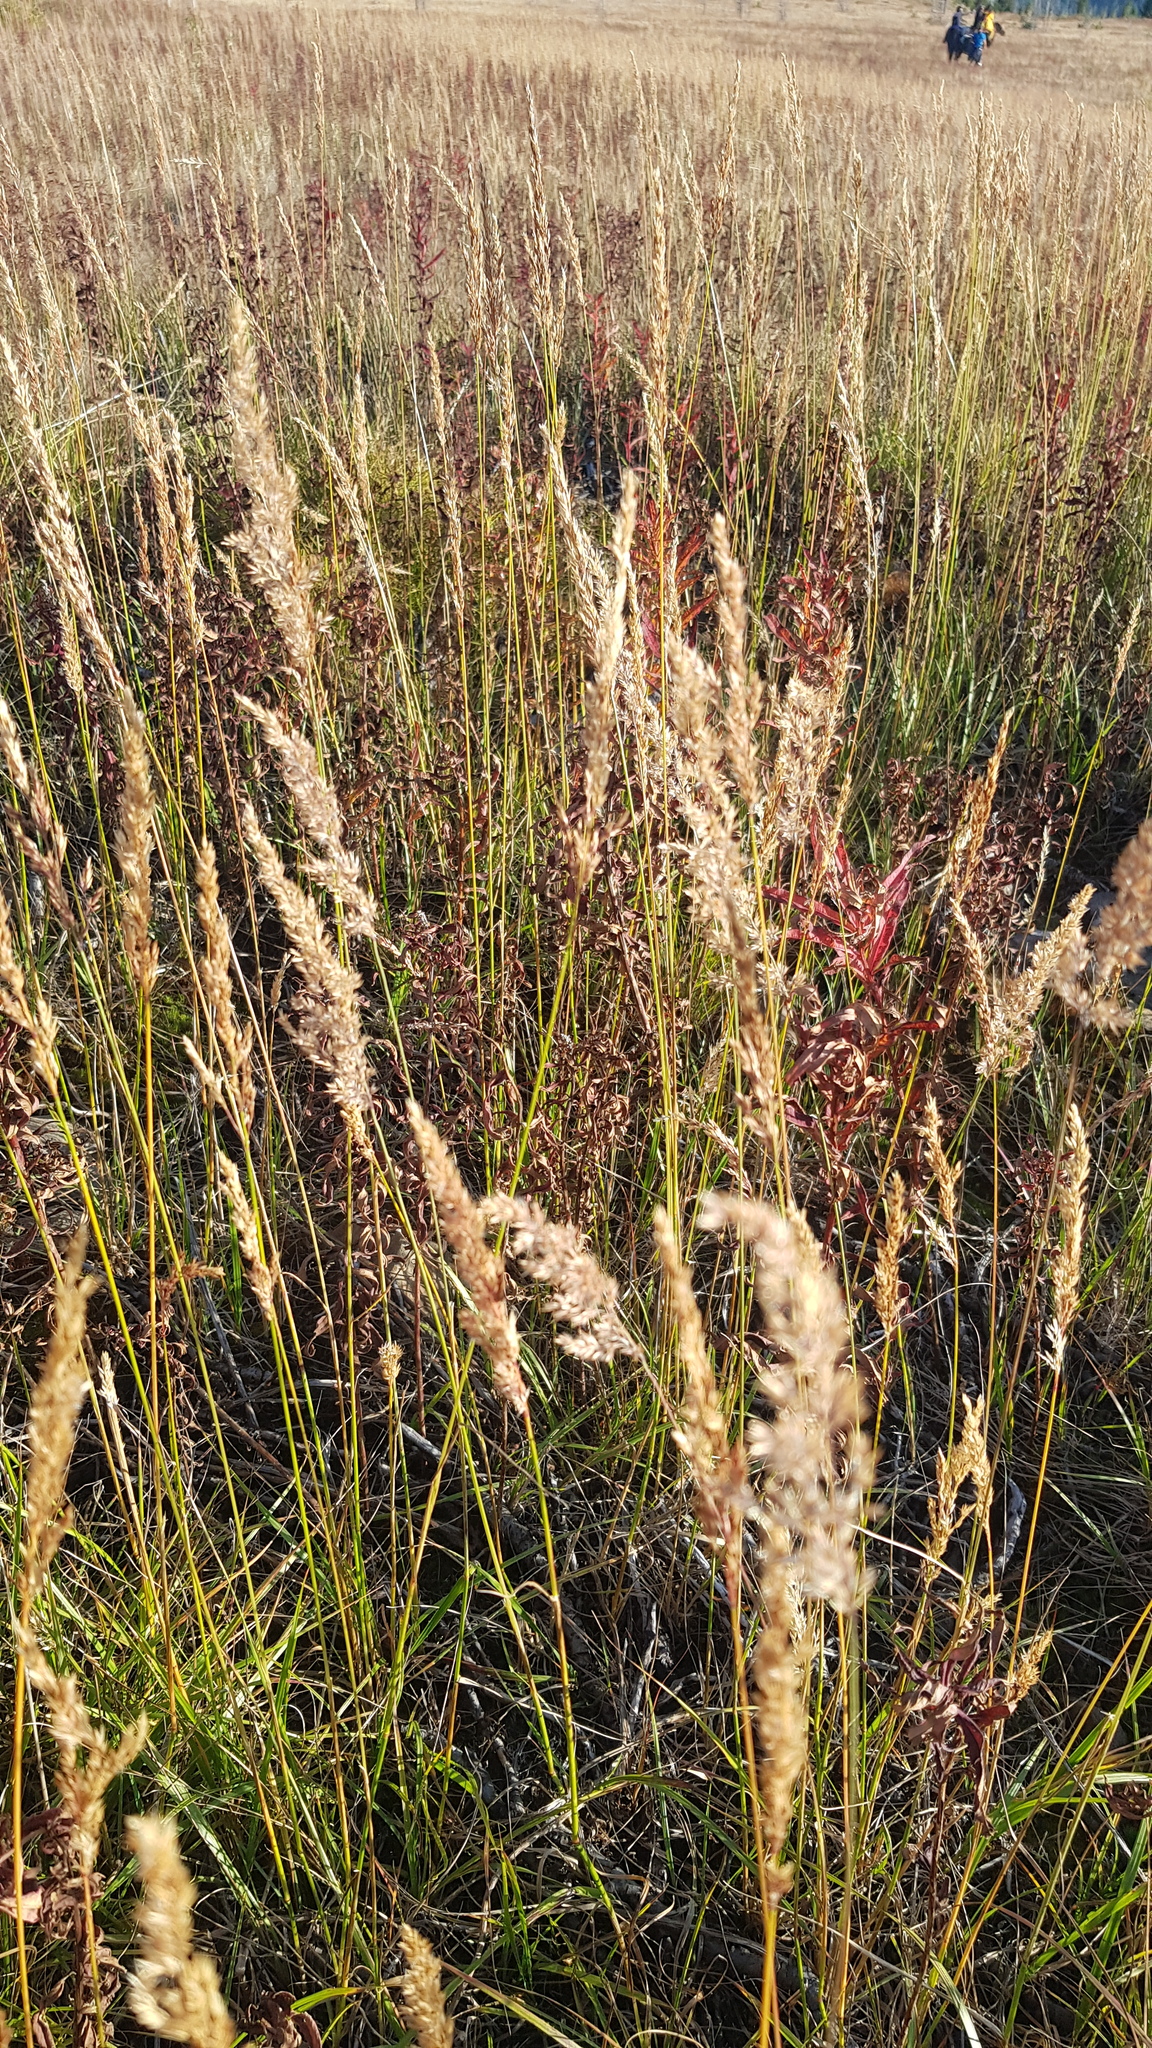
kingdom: Plantae
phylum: Tracheophyta
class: Liliopsida
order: Poales
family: Poaceae
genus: Koeleria
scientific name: Koeleria macrantha
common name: Crested hair-grass
